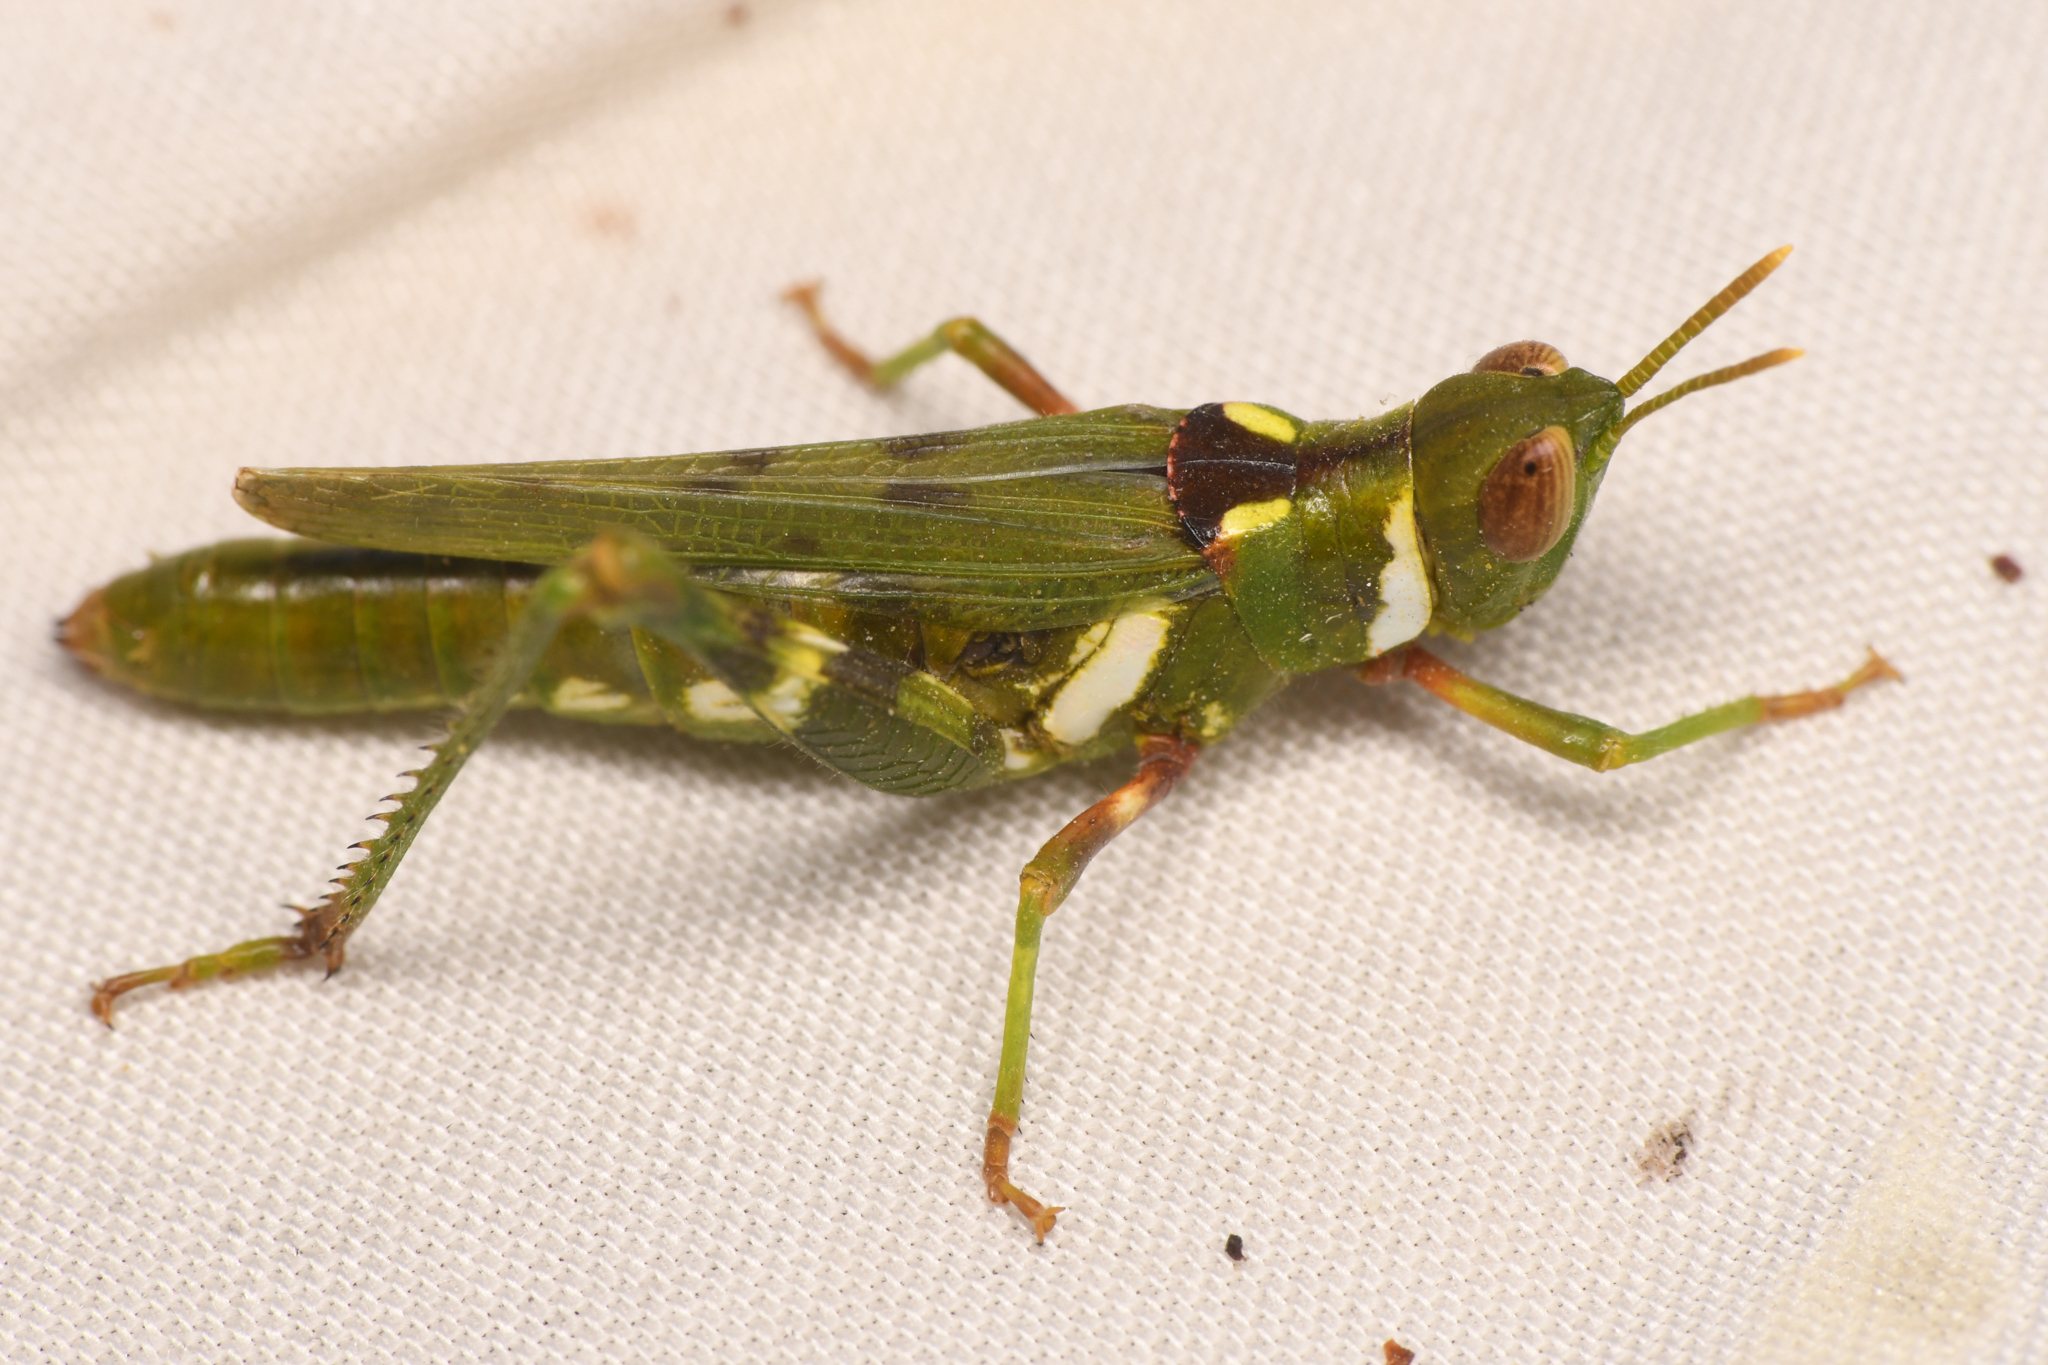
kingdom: Animalia
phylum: Arthropoda
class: Insecta
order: Orthoptera
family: Acrididae
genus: Bootettix
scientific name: Bootettix argentatus
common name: Creosote bush grasshopper
